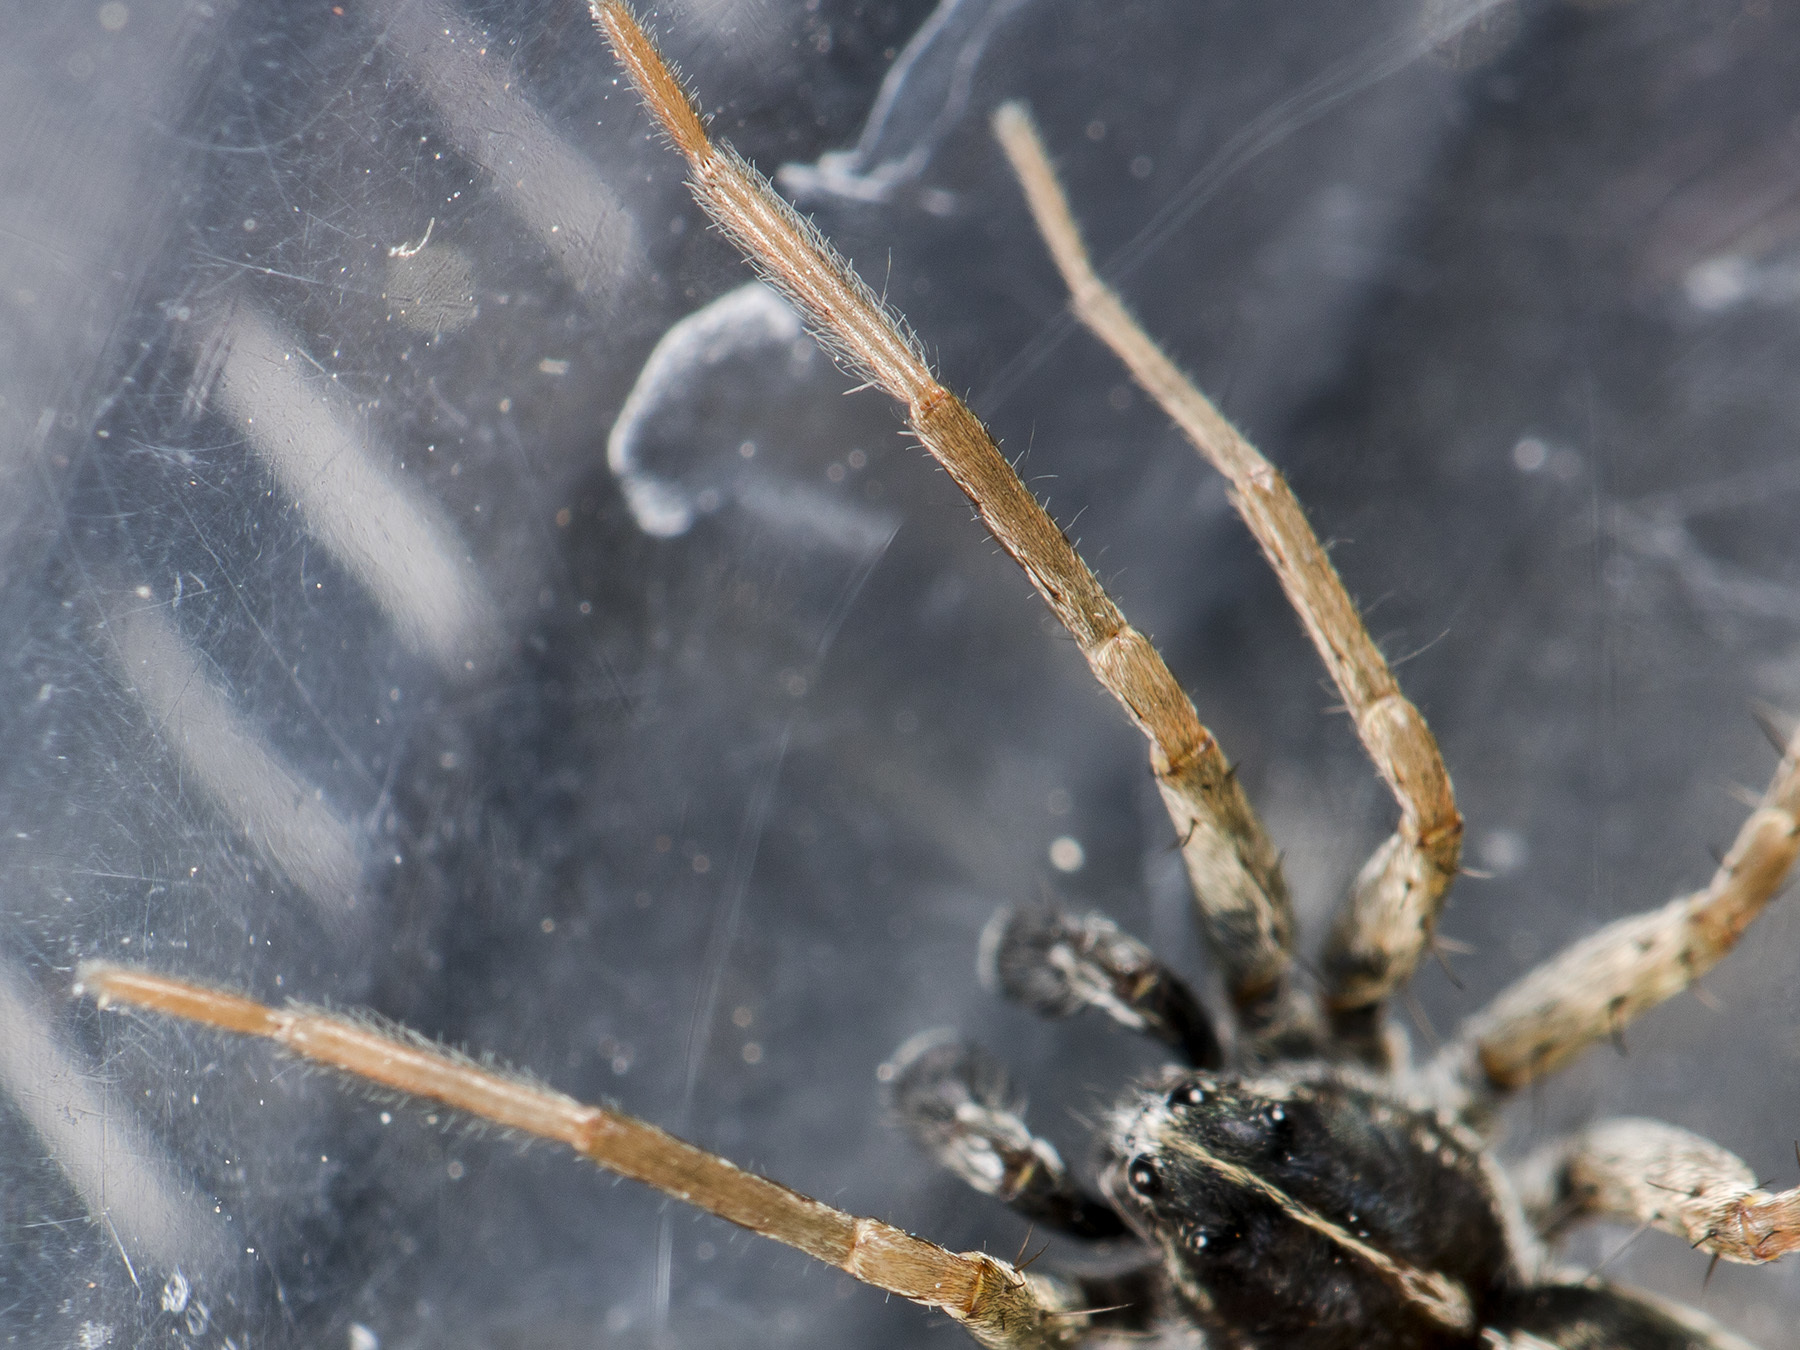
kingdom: Animalia
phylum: Arthropoda
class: Arachnida
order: Araneae
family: Lycosidae
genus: Pardosa
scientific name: Pardosa zonsteini
